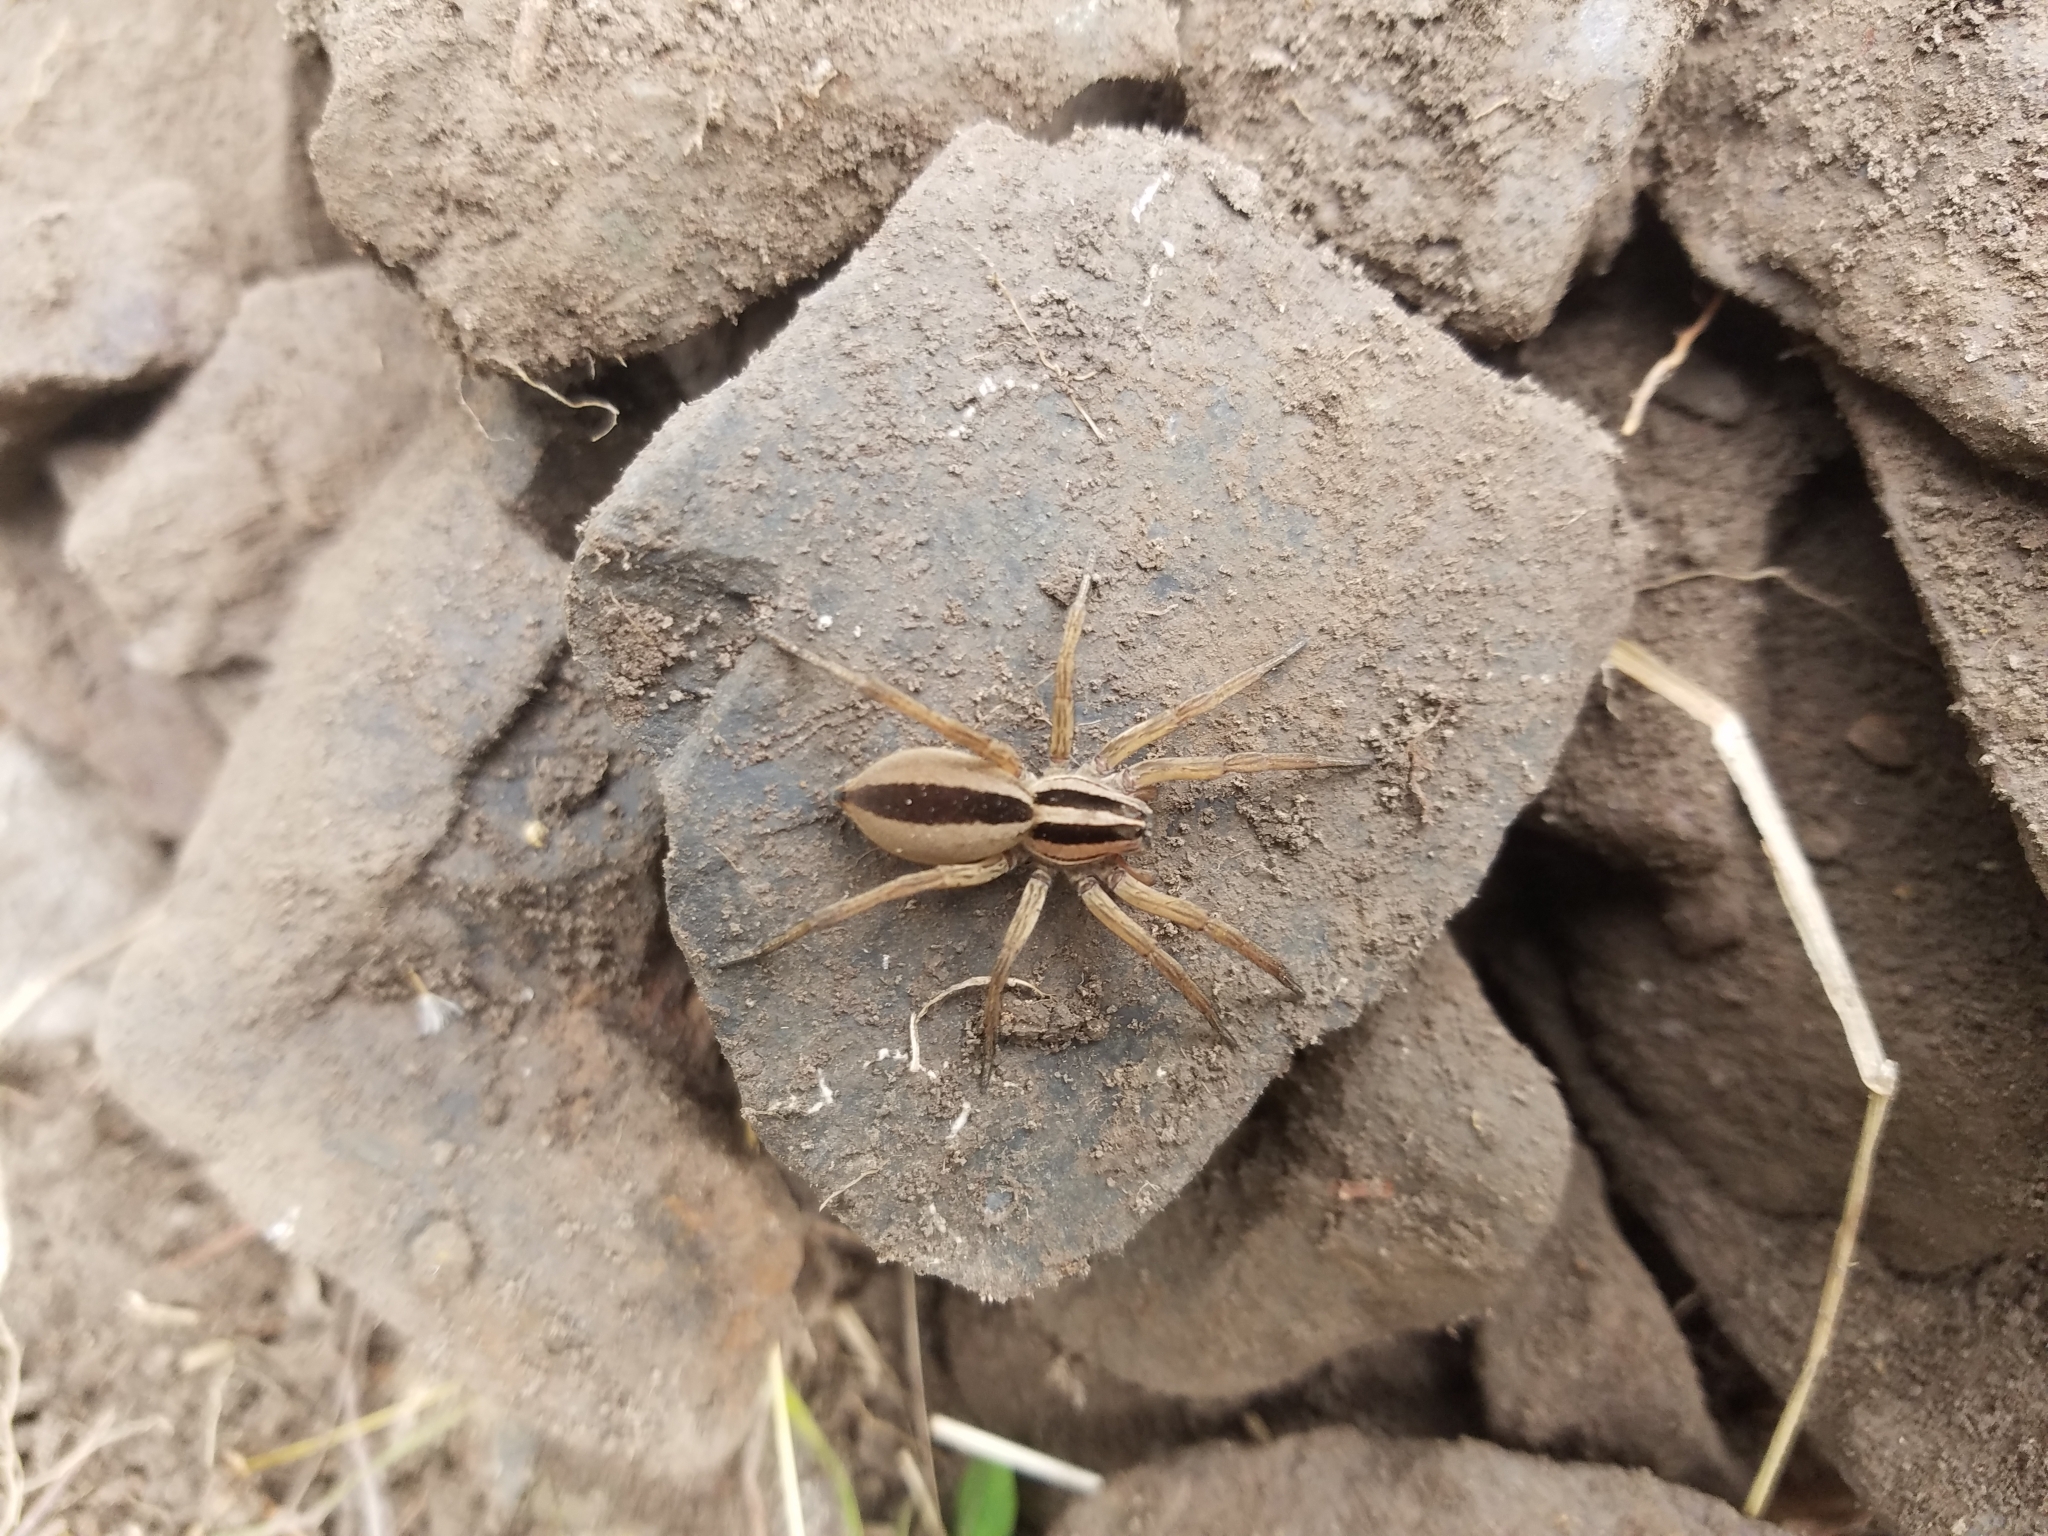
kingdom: Animalia
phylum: Arthropoda
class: Arachnida
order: Araneae
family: Lycosidae
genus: Rabidosa
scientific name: Rabidosa punctulata
